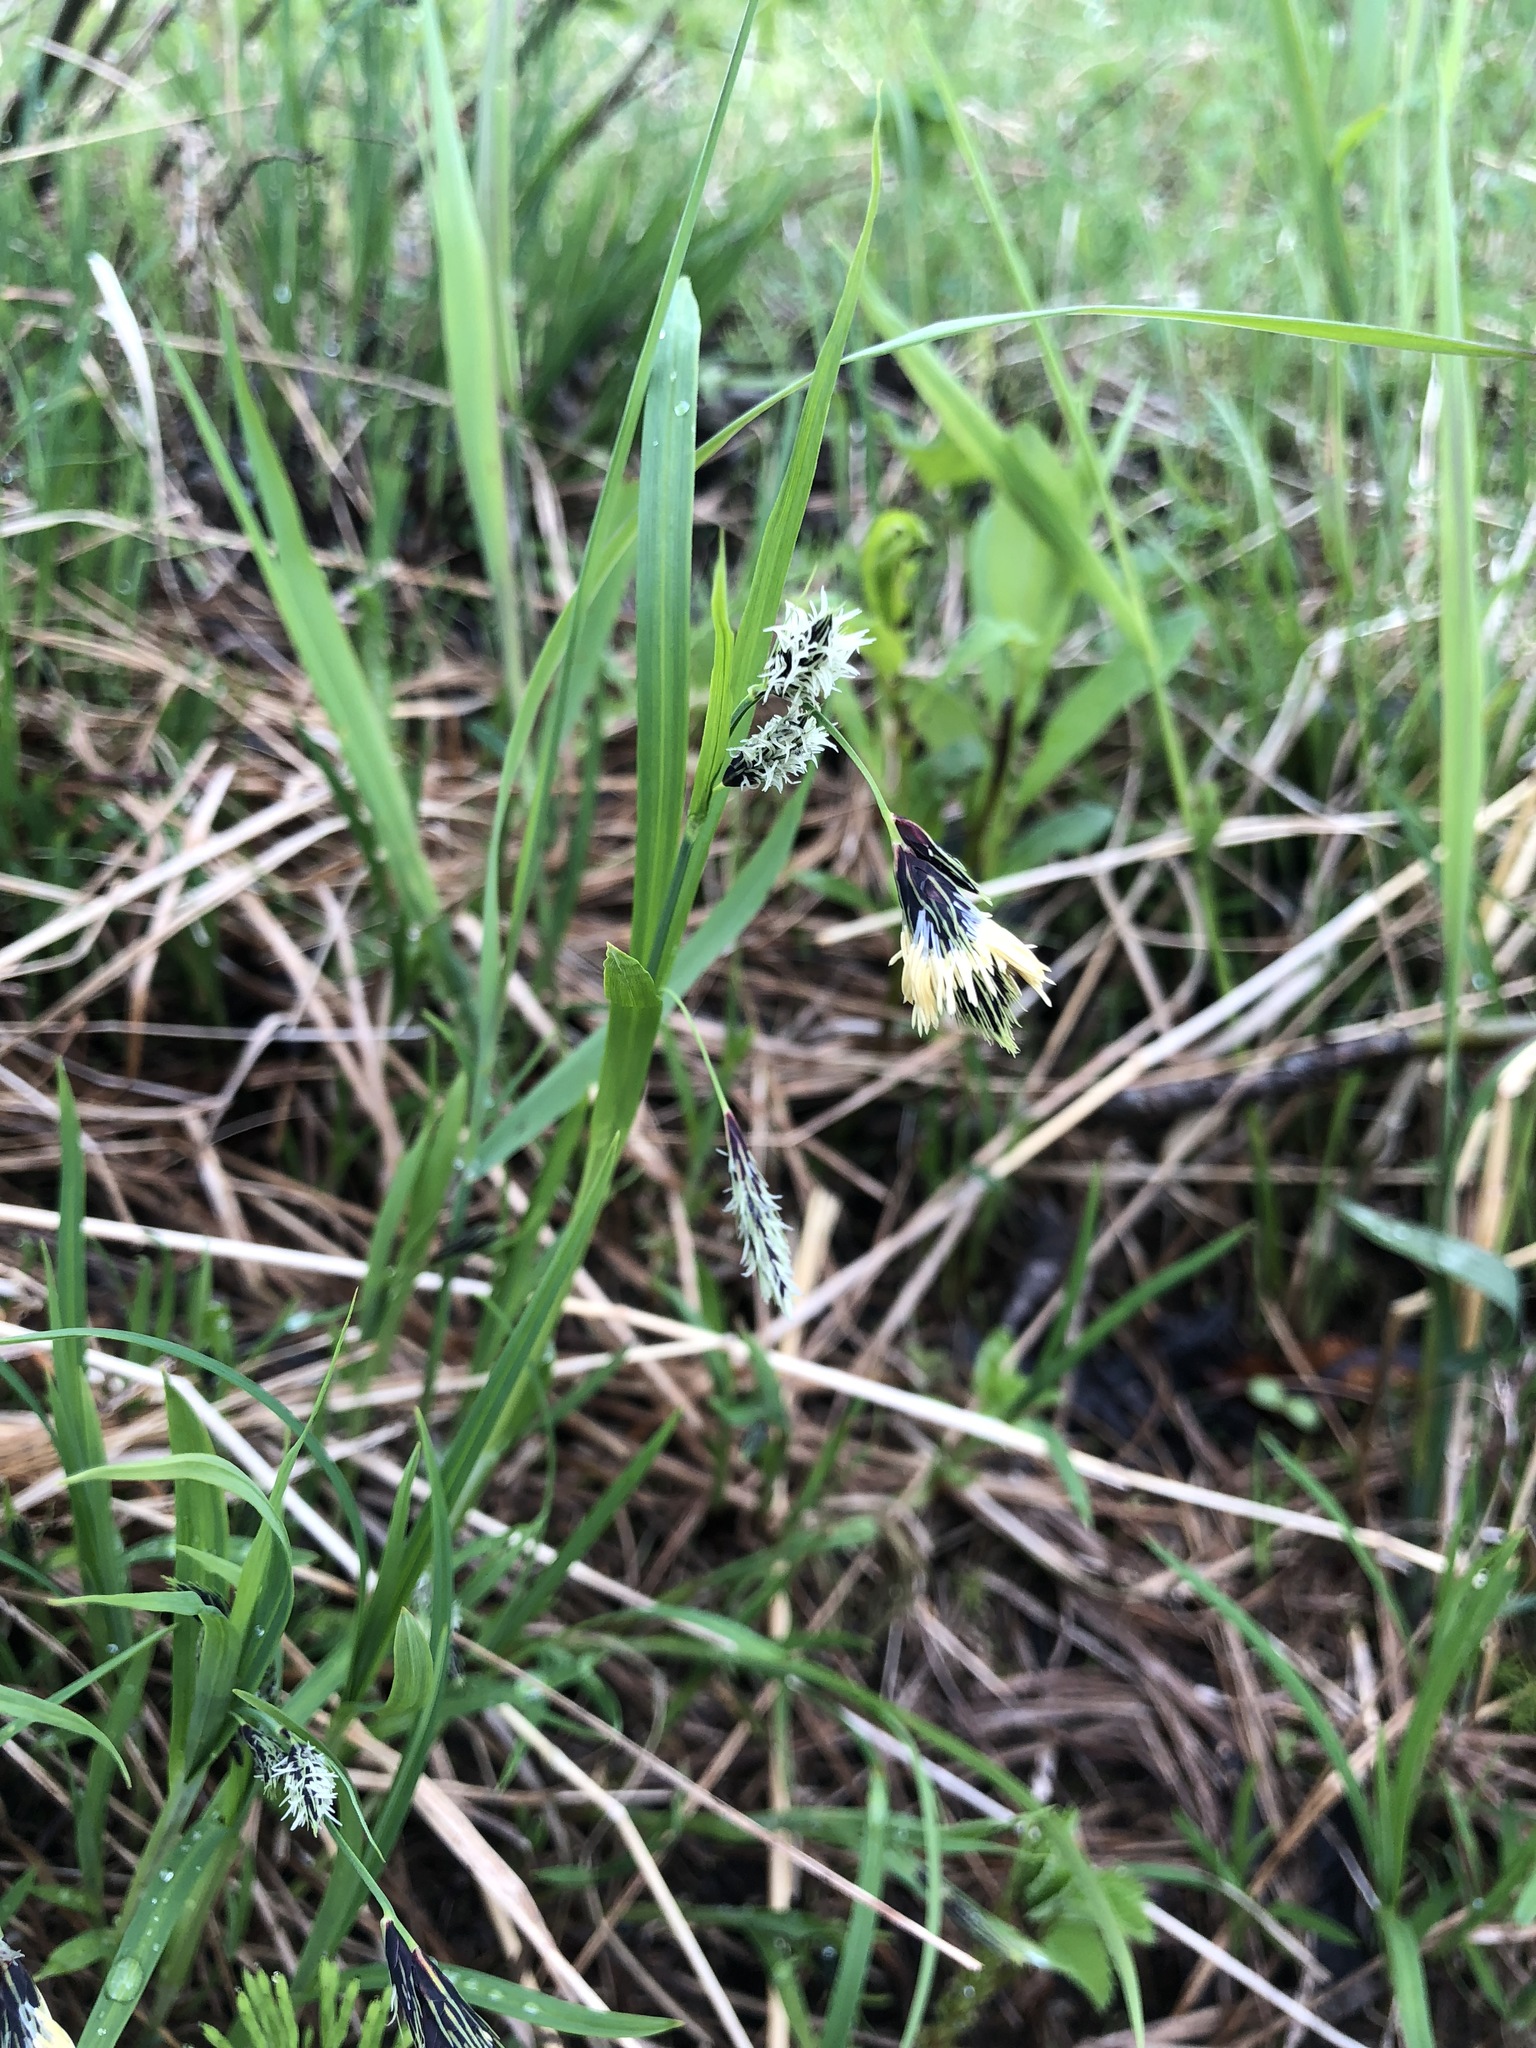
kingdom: Plantae
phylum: Tracheophyta
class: Liliopsida
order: Poales
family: Cyperaceae
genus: Carex
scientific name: Carex macrochaeta
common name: Alaska large awn sedge
